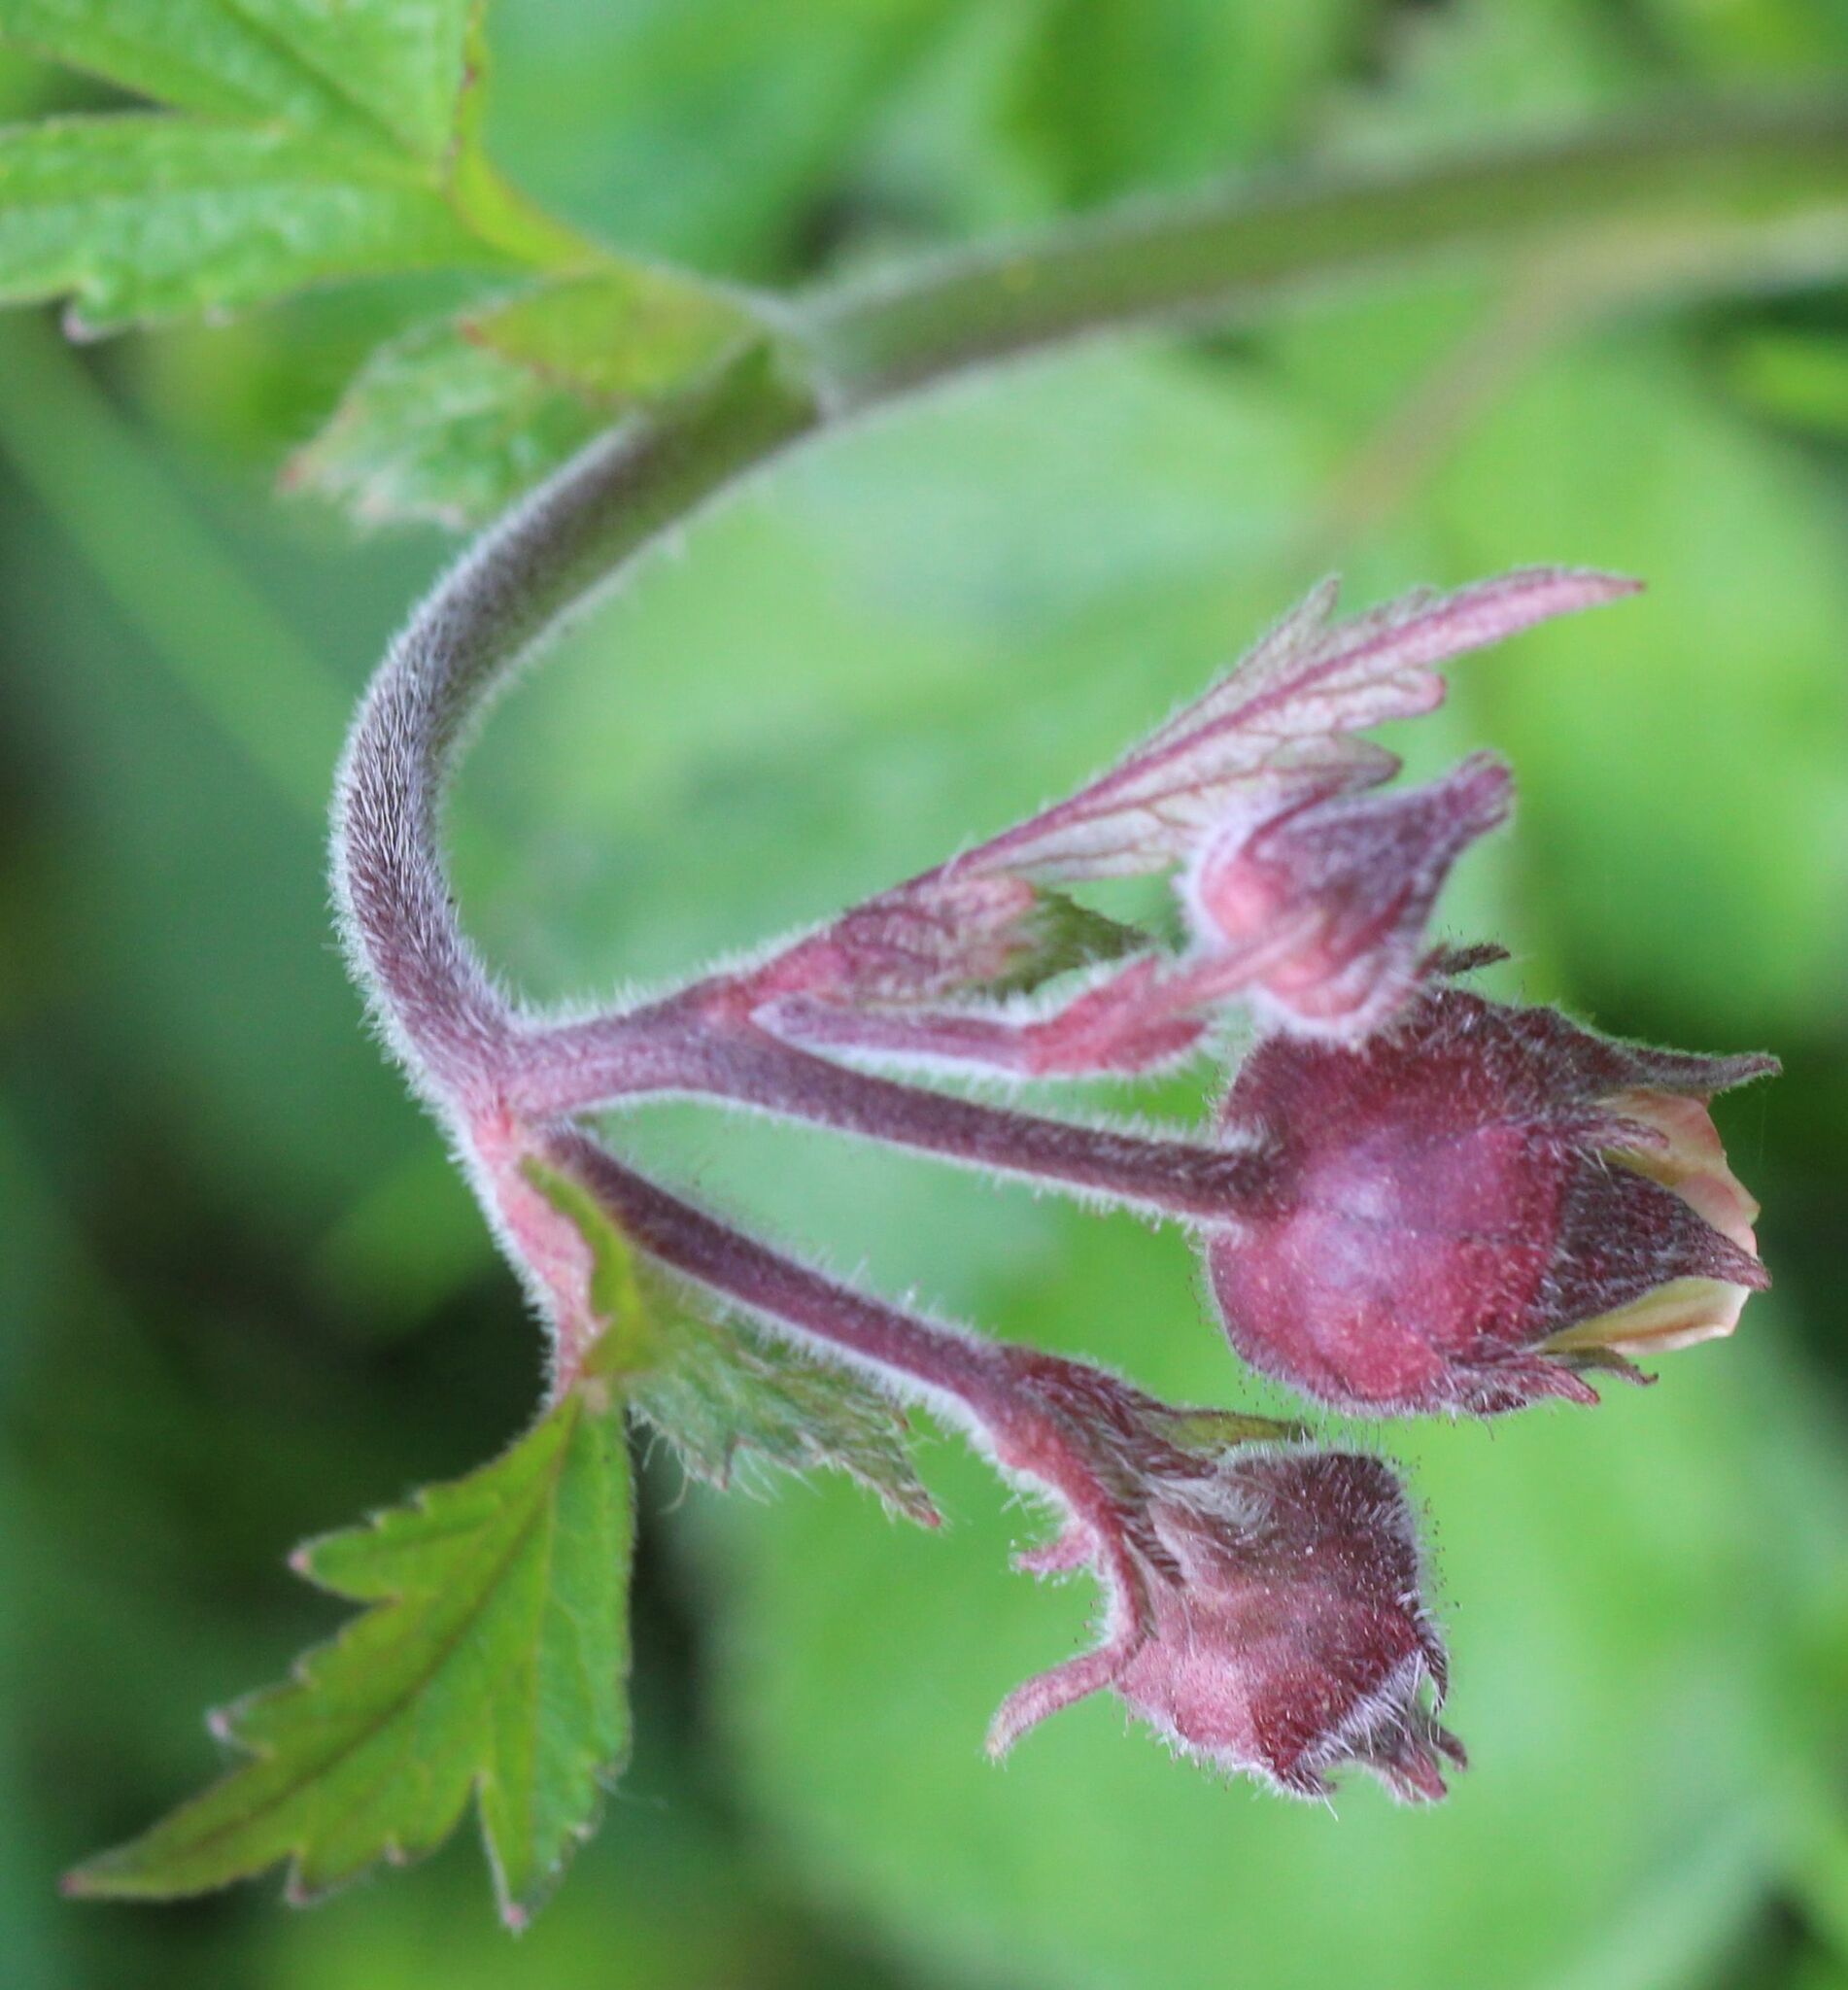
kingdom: Plantae
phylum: Tracheophyta
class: Magnoliopsida
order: Rosales
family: Rosaceae
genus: Geum
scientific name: Geum rivale
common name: Water avens
